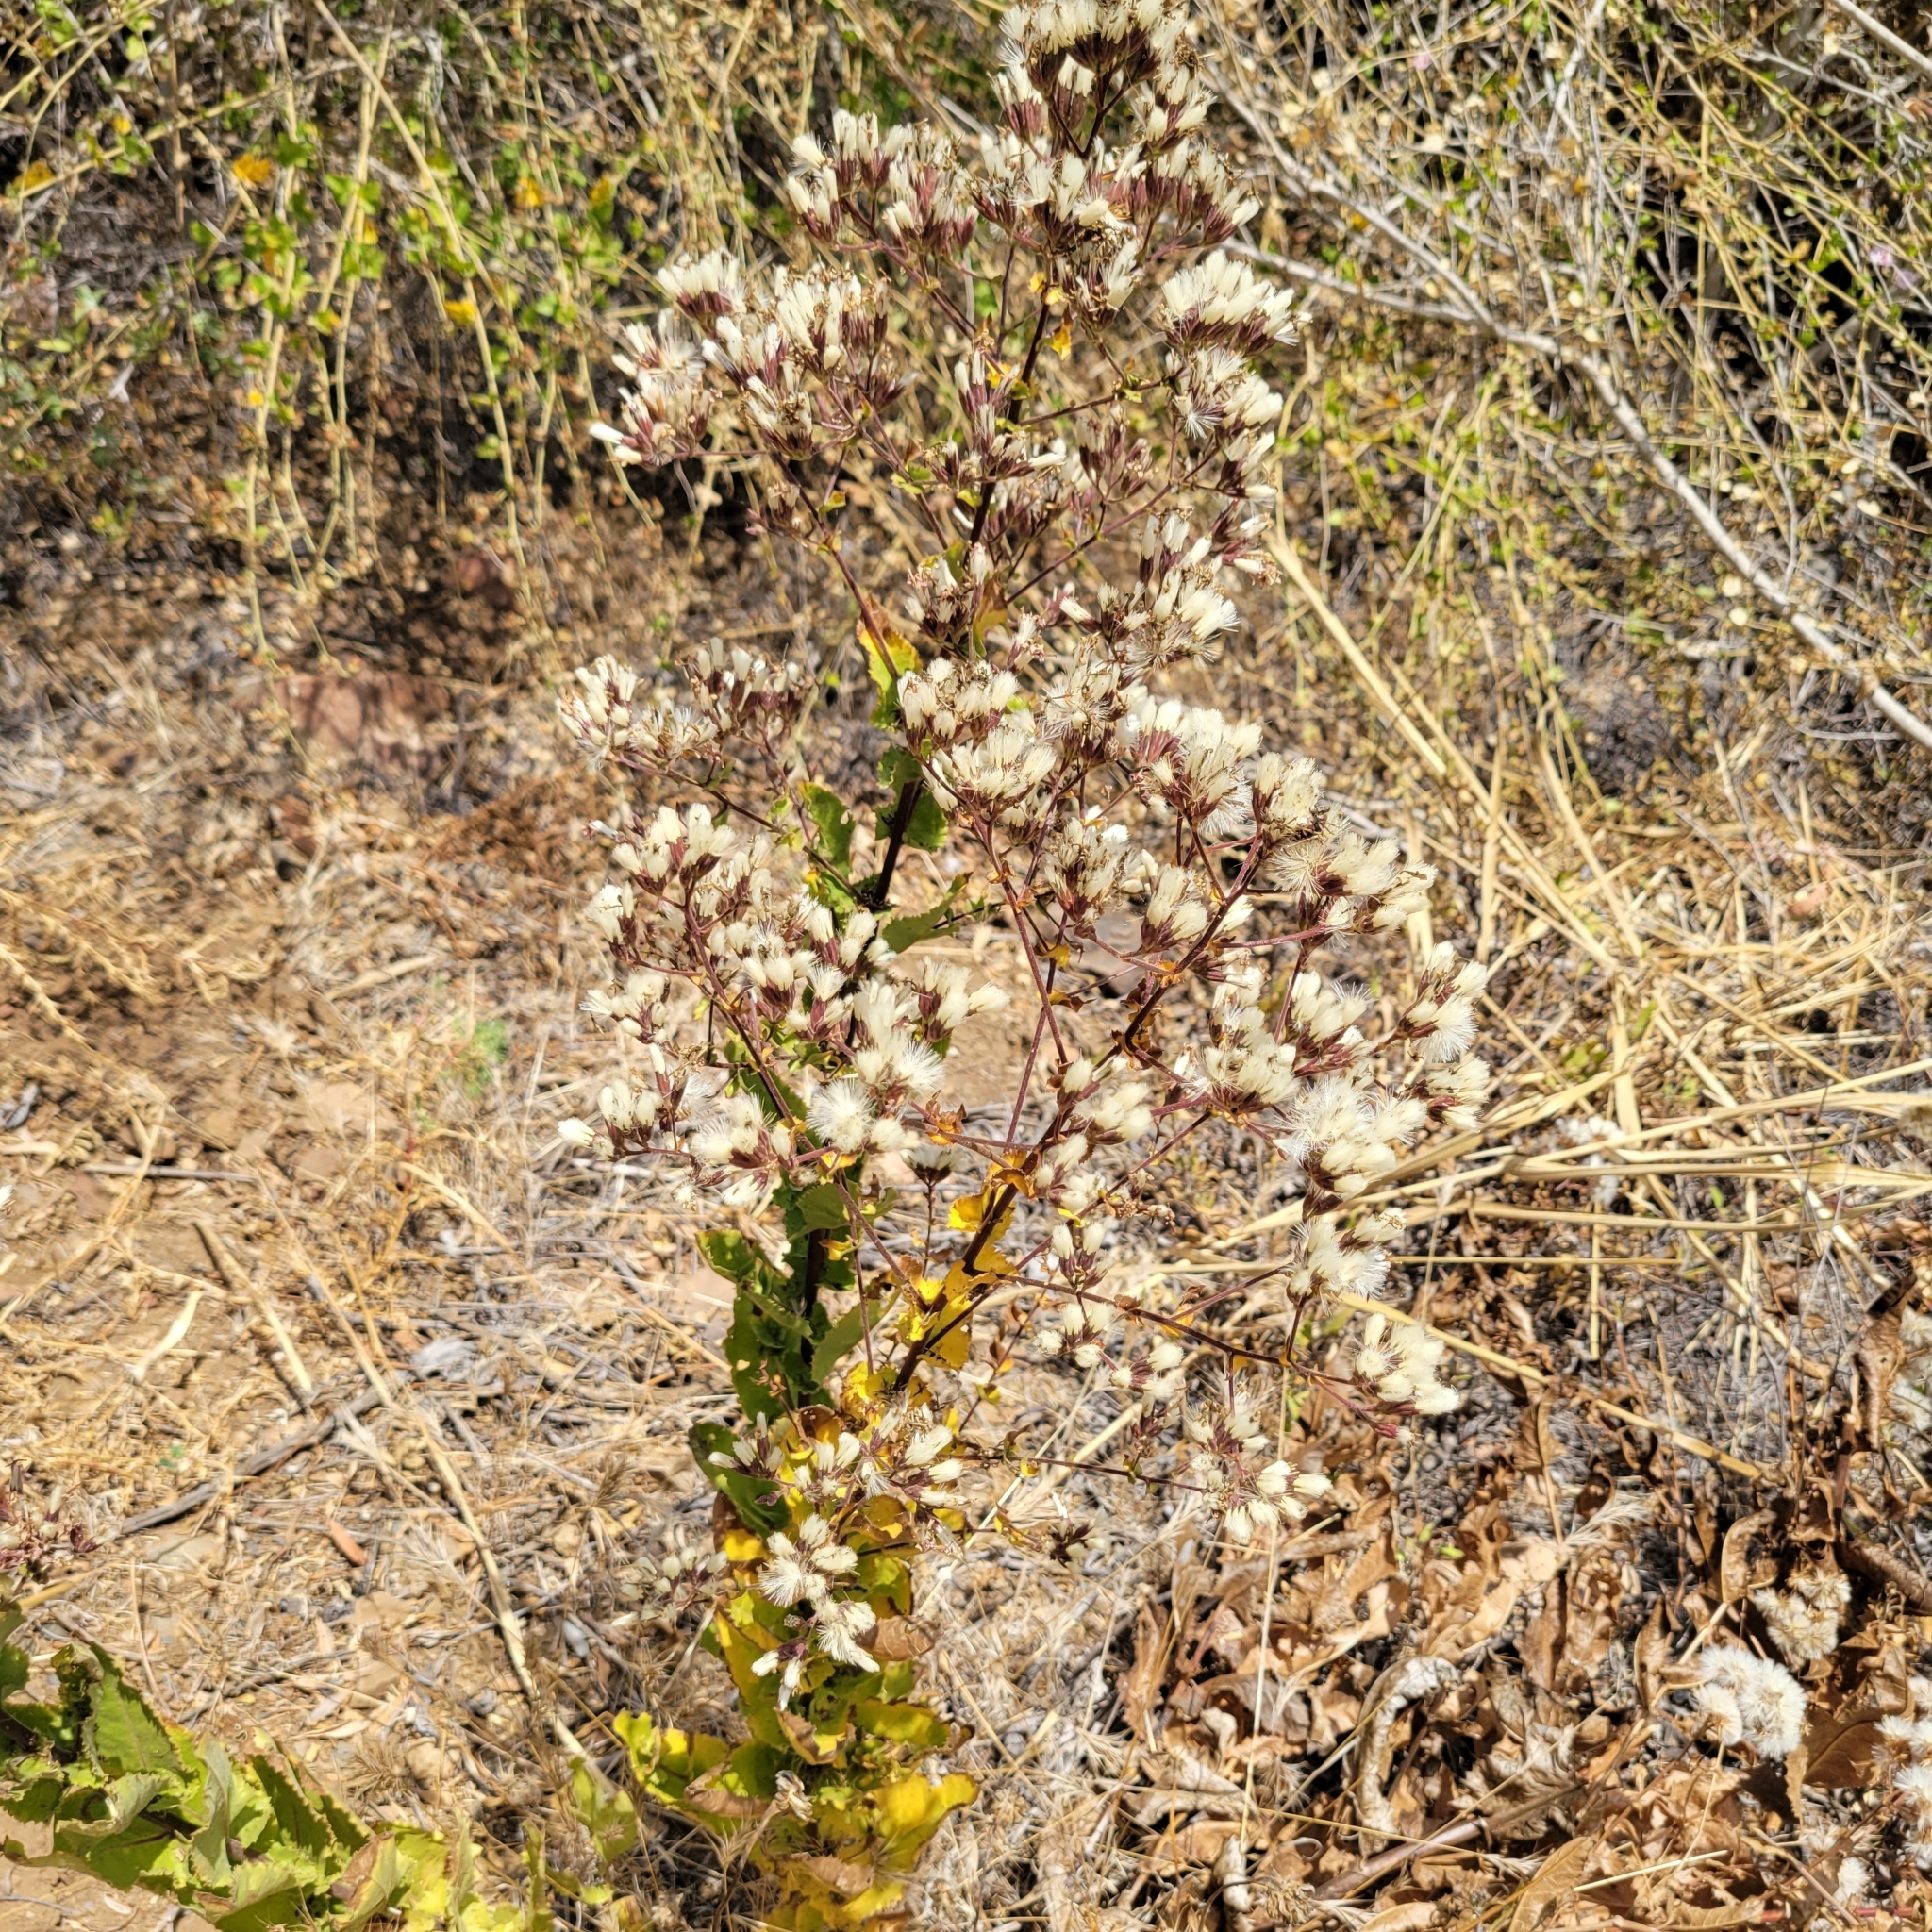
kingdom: Plantae
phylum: Tracheophyta
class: Magnoliopsida
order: Asterales
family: Asteraceae
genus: Acourtia
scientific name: Acourtia microcephala
